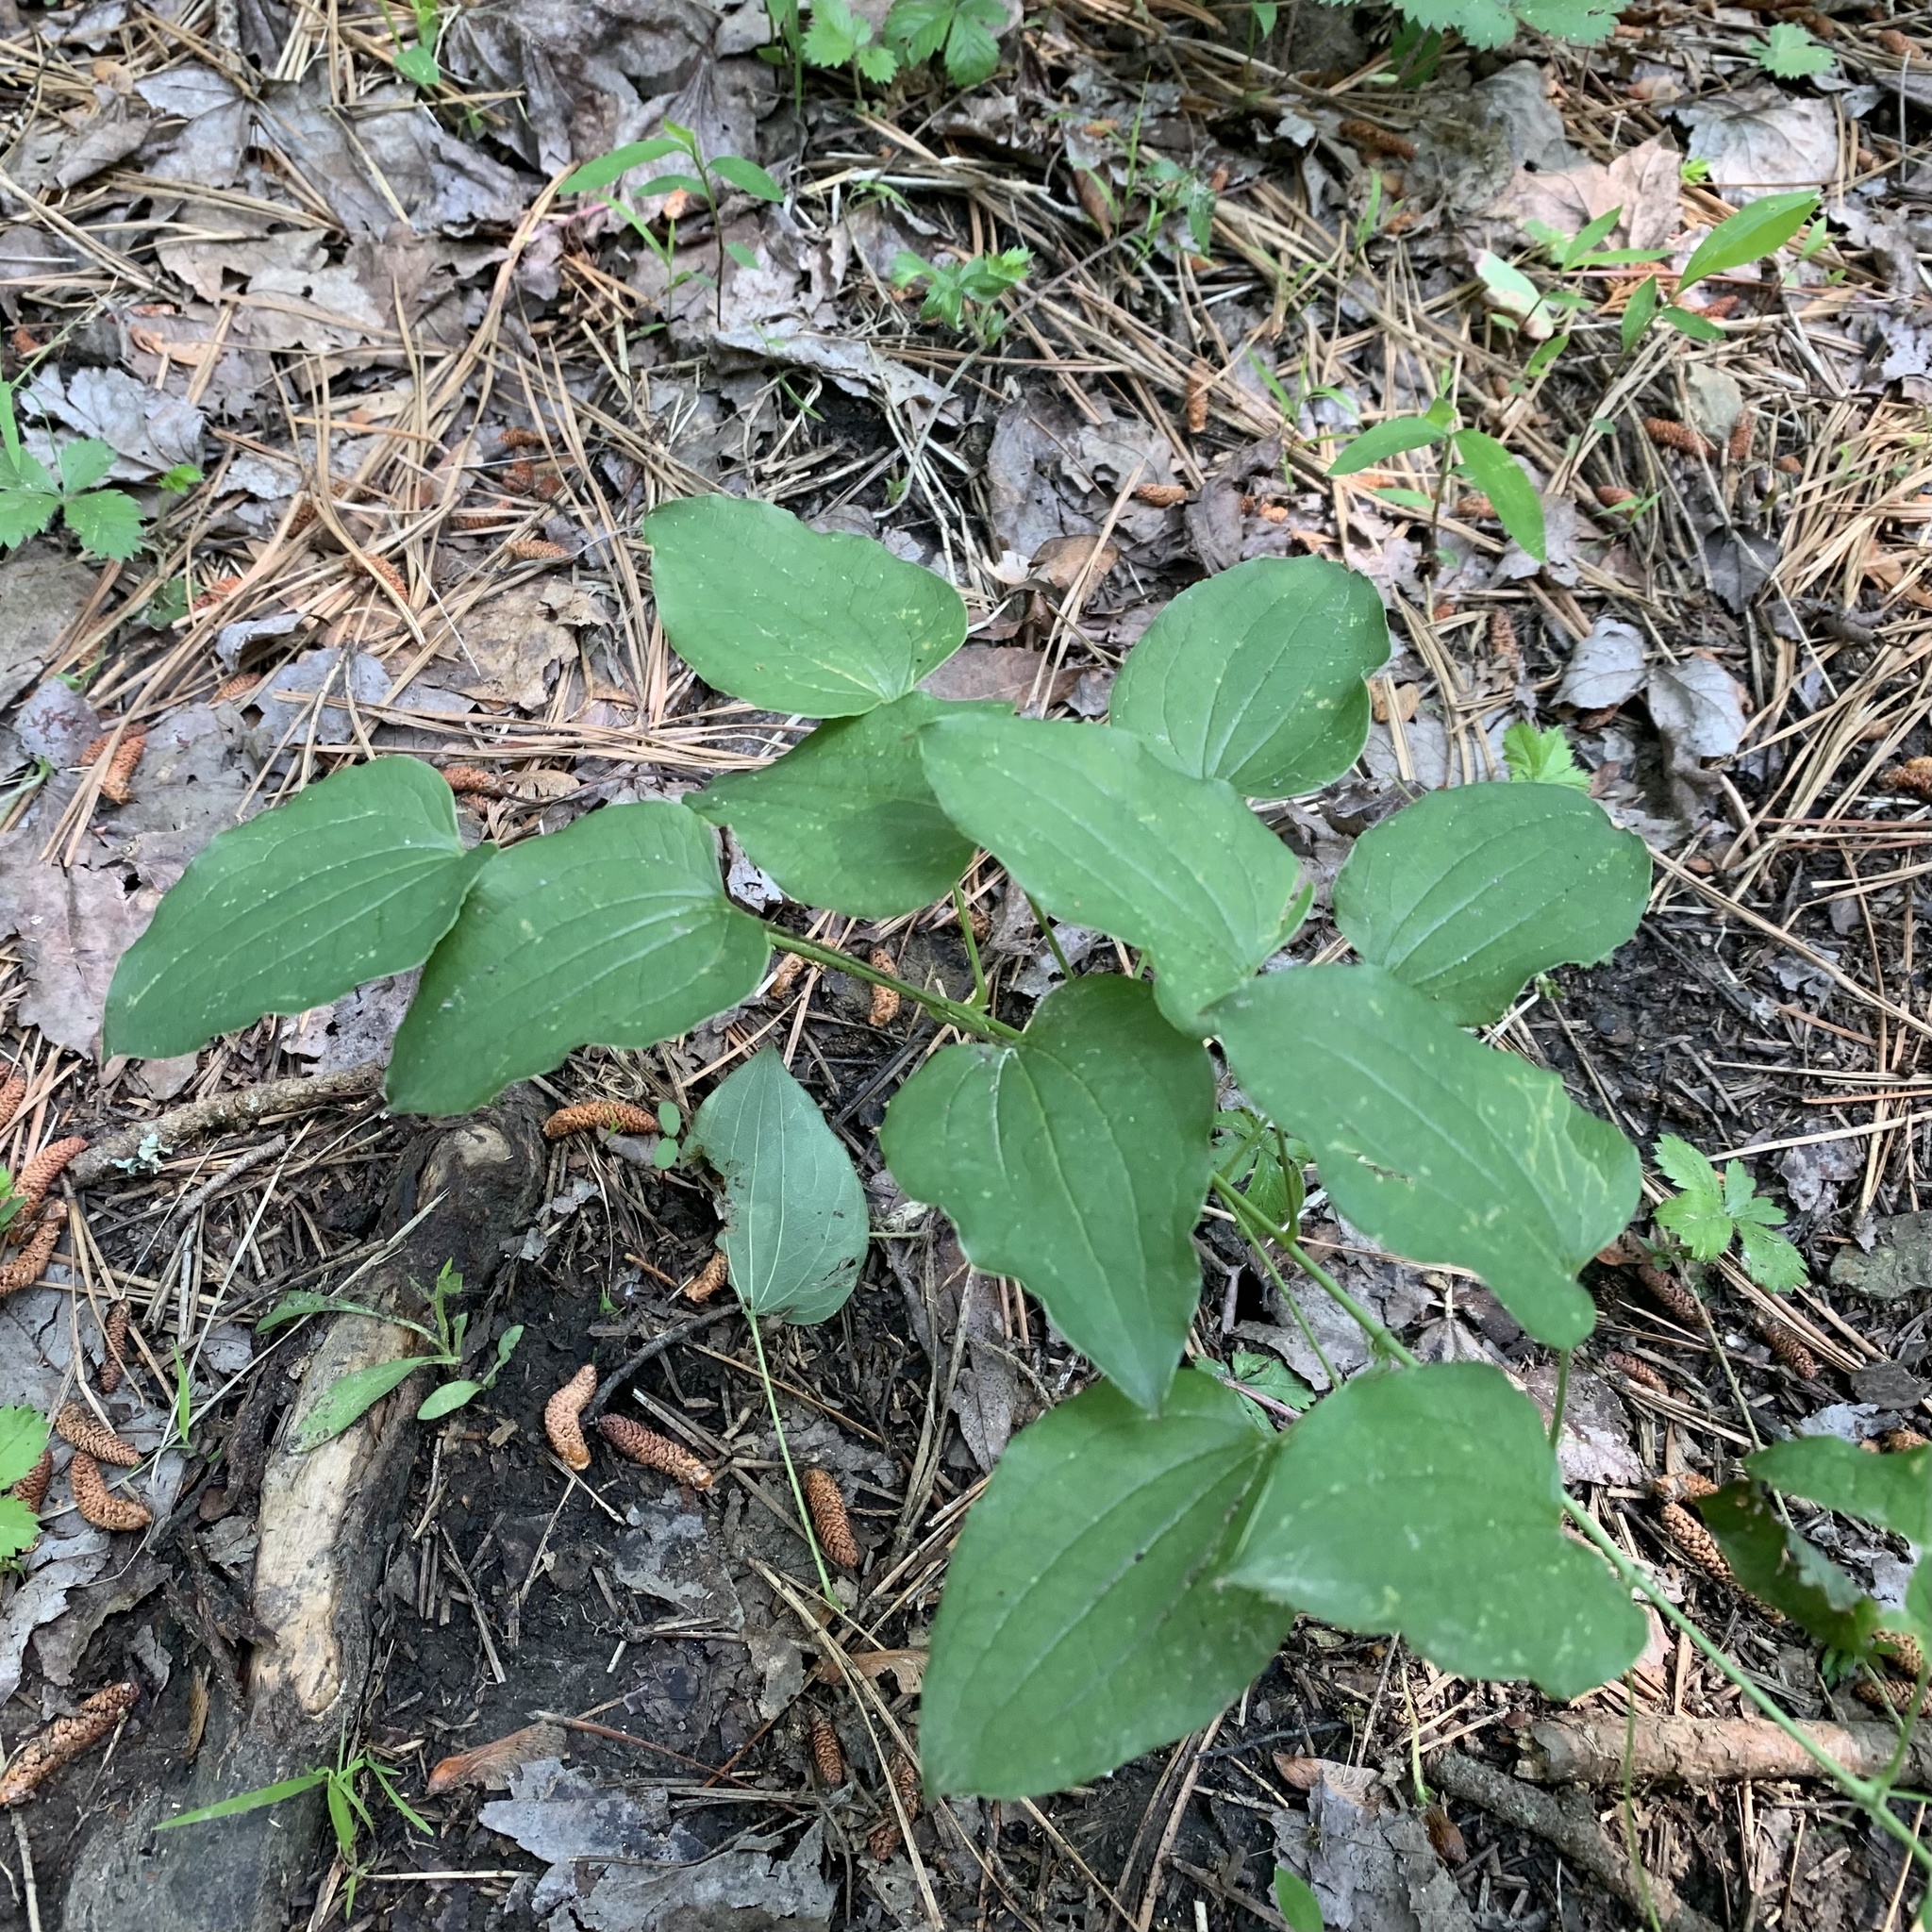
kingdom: Plantae
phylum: Tracheophyta
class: Liliopsida
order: Liliales
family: Smilacaceae
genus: Smilax
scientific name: Smilax herbacea
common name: Jacob's-ladder
